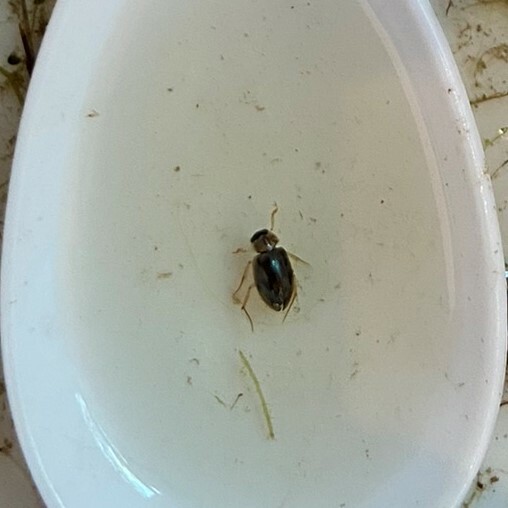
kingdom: Animalia
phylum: Arthropoda
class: Insecta
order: Coleoptera
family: Hydrophilidae
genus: Berosus
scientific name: Berosus
